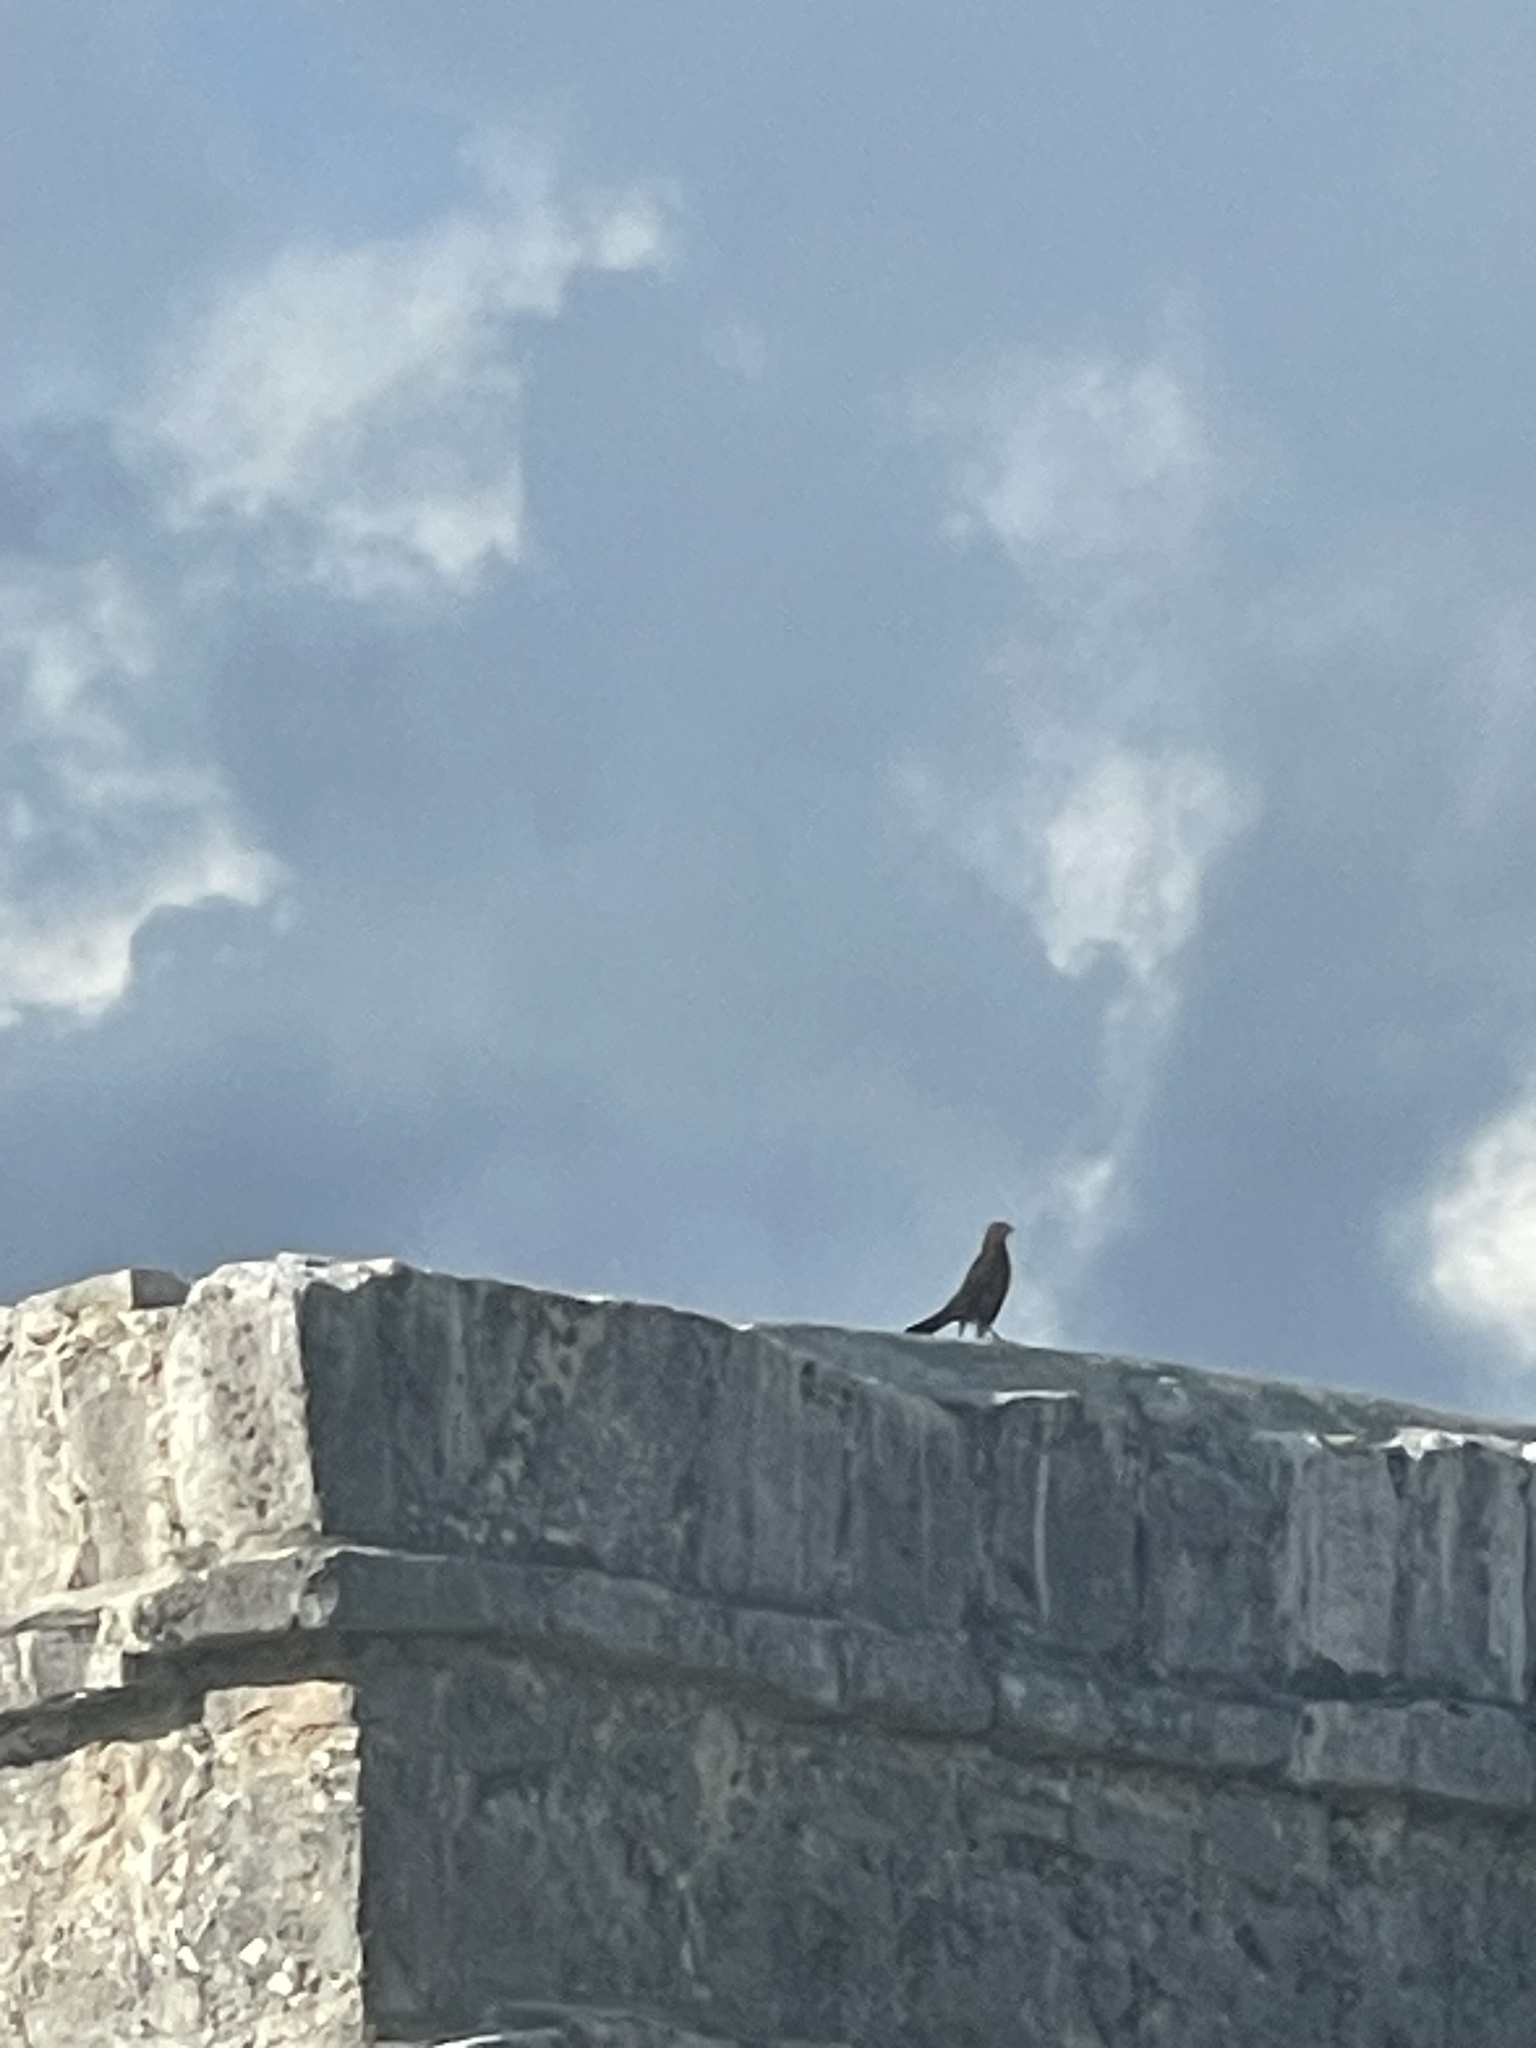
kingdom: Animalia
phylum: Chordata
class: Aves
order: Passeriformes
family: Icteridae
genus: Quiscalus
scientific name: Quiscalus mexicanus
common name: Great-tailed grackle
